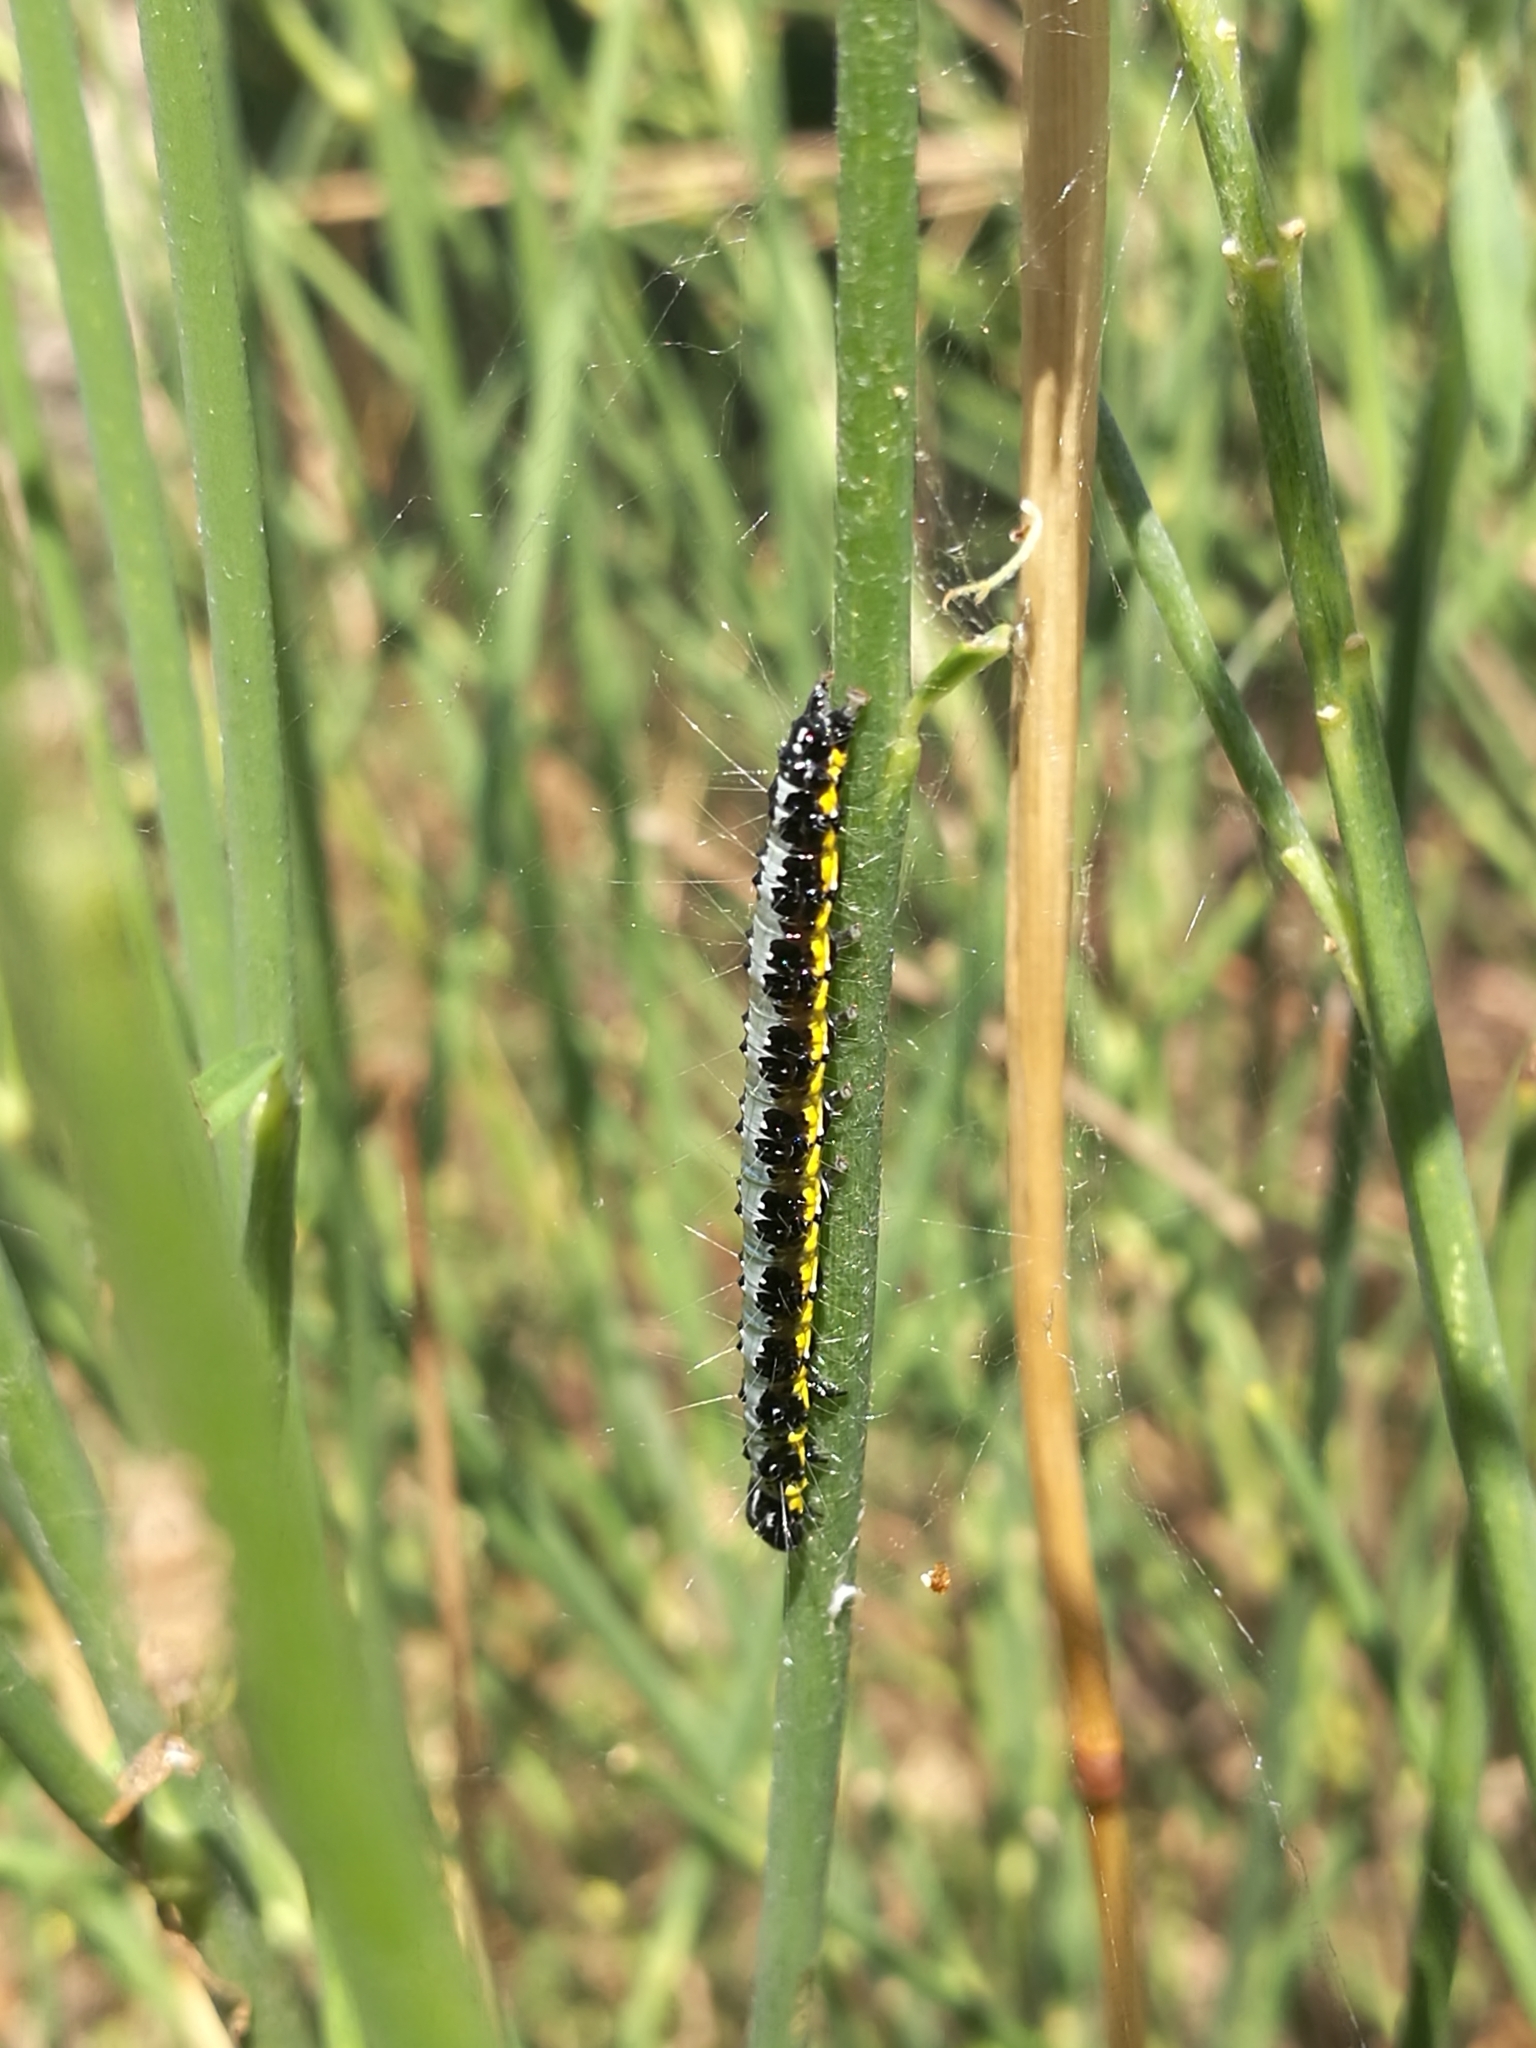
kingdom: Animalia
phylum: Arthropoda
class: Insecta
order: Lepidoptera
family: Crambidae
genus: Uresiphita
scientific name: Uresiphita gilvata
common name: Yellow-underwing pearl
